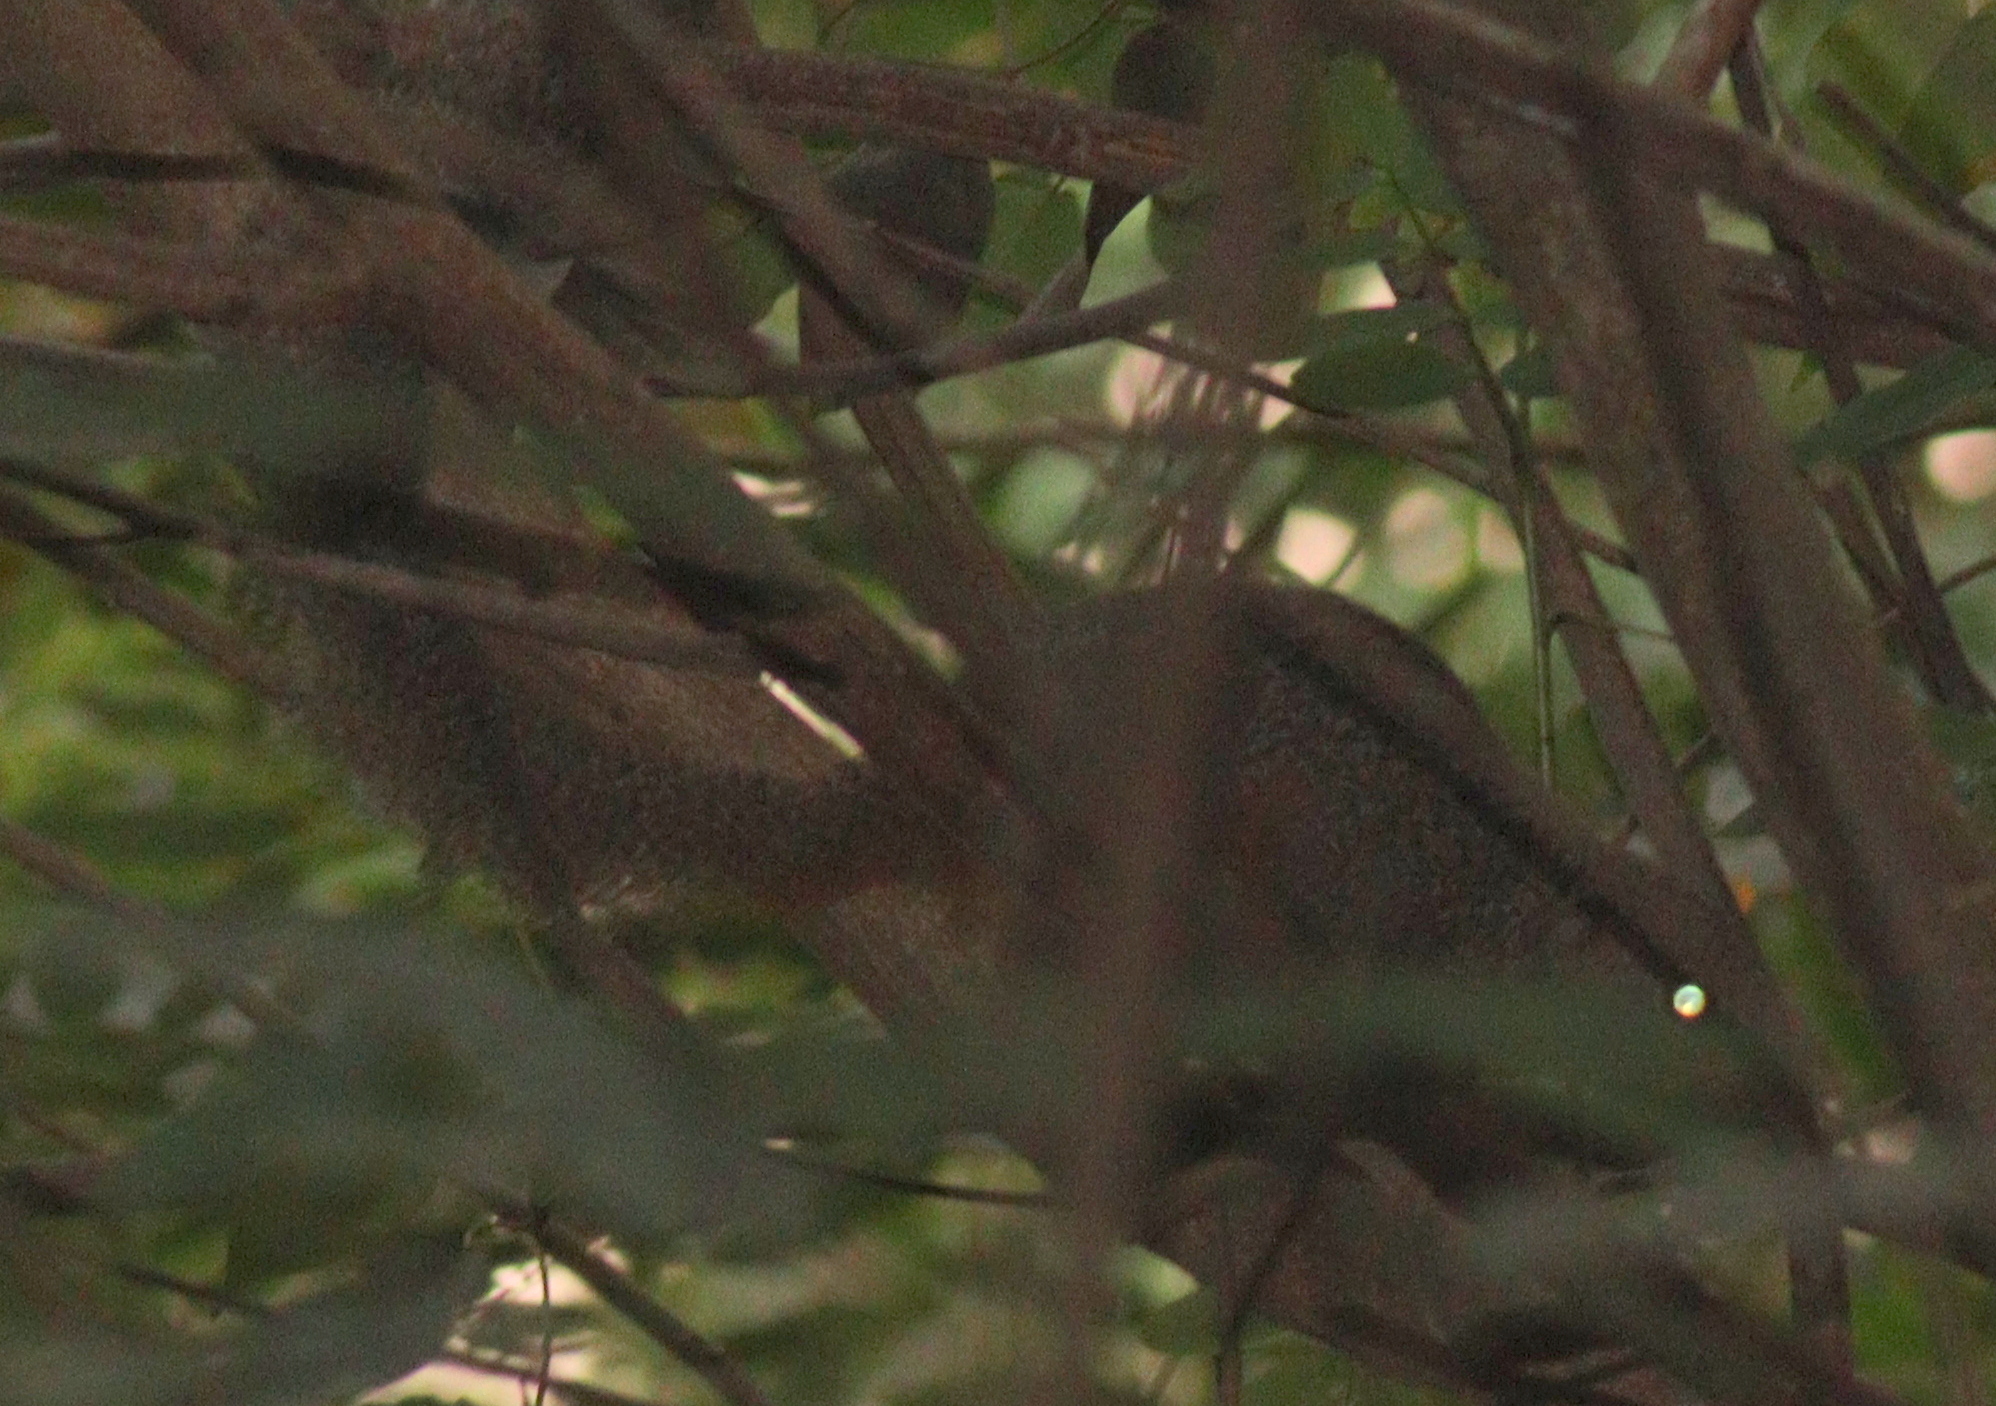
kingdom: Animalia
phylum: Chordata
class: Mammalia
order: Rodentia
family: Sciuridae
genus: Heliosciurus
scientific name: Heliosciurus rufobrachium
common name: Red-legged sun squirrel
